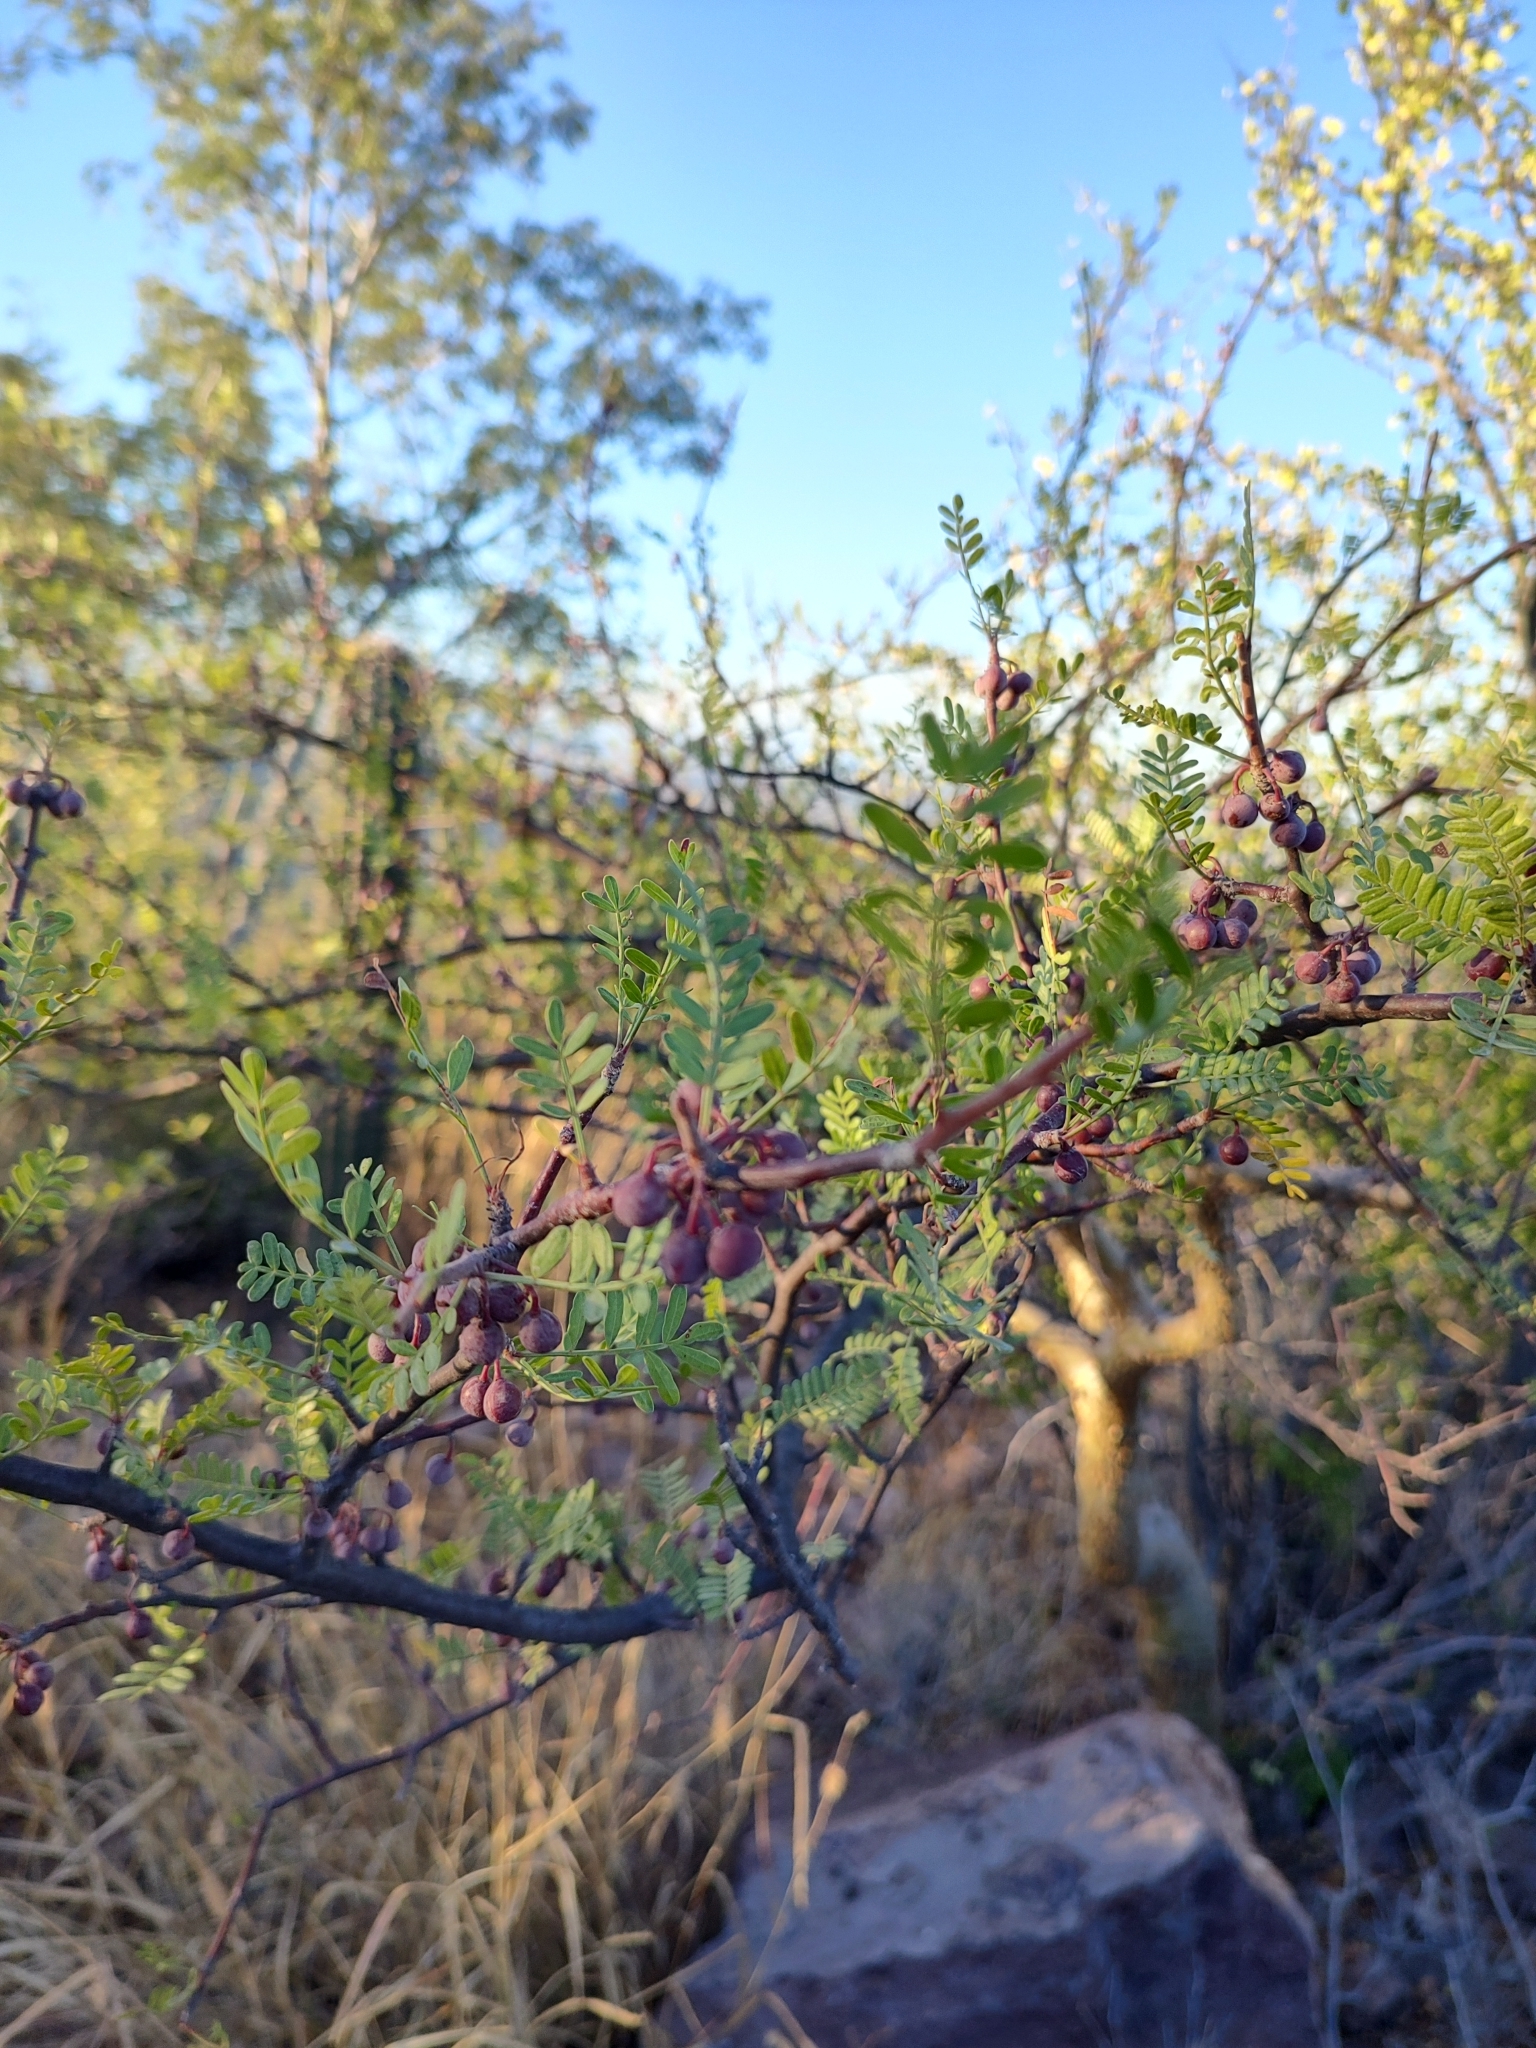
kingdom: Plantae
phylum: Tracheophyta
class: Magnoliopsida
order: Sapindales
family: Burseraceae
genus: Bursera
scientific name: Bursera microphylla
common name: Elephant tree
